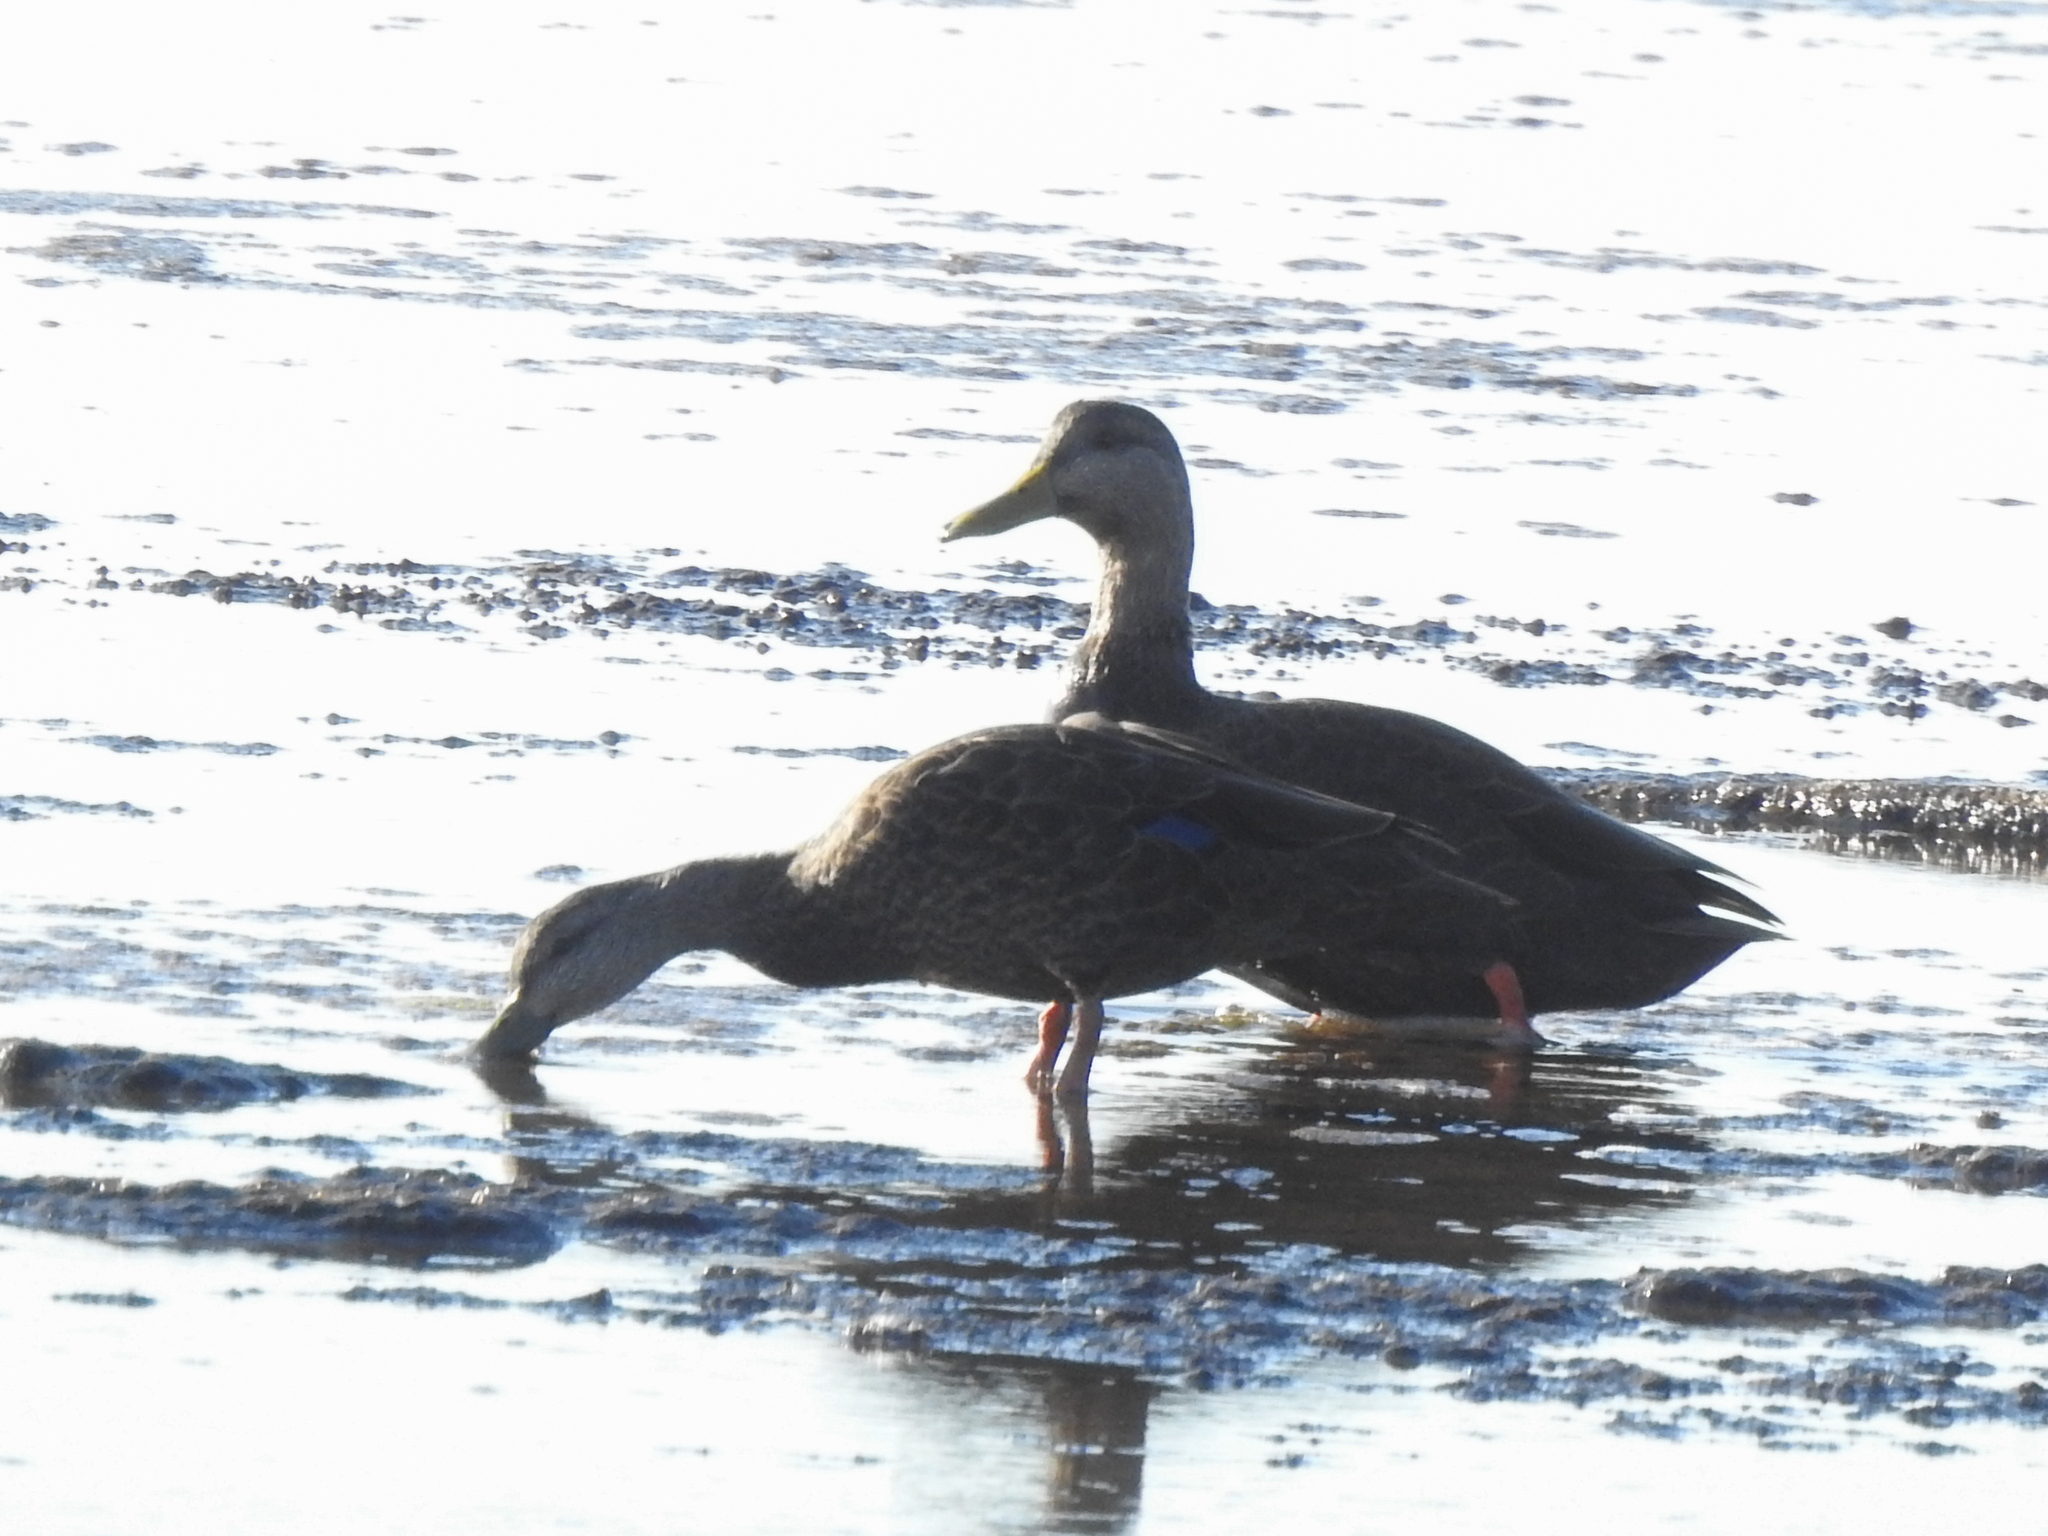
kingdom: Animalia
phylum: Chordata
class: Aves
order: Anseriformes
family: Anatidae
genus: Anas
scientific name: Anas rubripes
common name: American black duck
